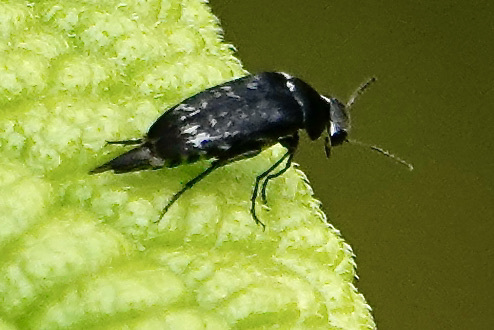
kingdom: Animalia
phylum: Arthropoda
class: Insecta
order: Coleoptera
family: Mordellidae
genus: Mordella
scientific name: Mordella marginata
